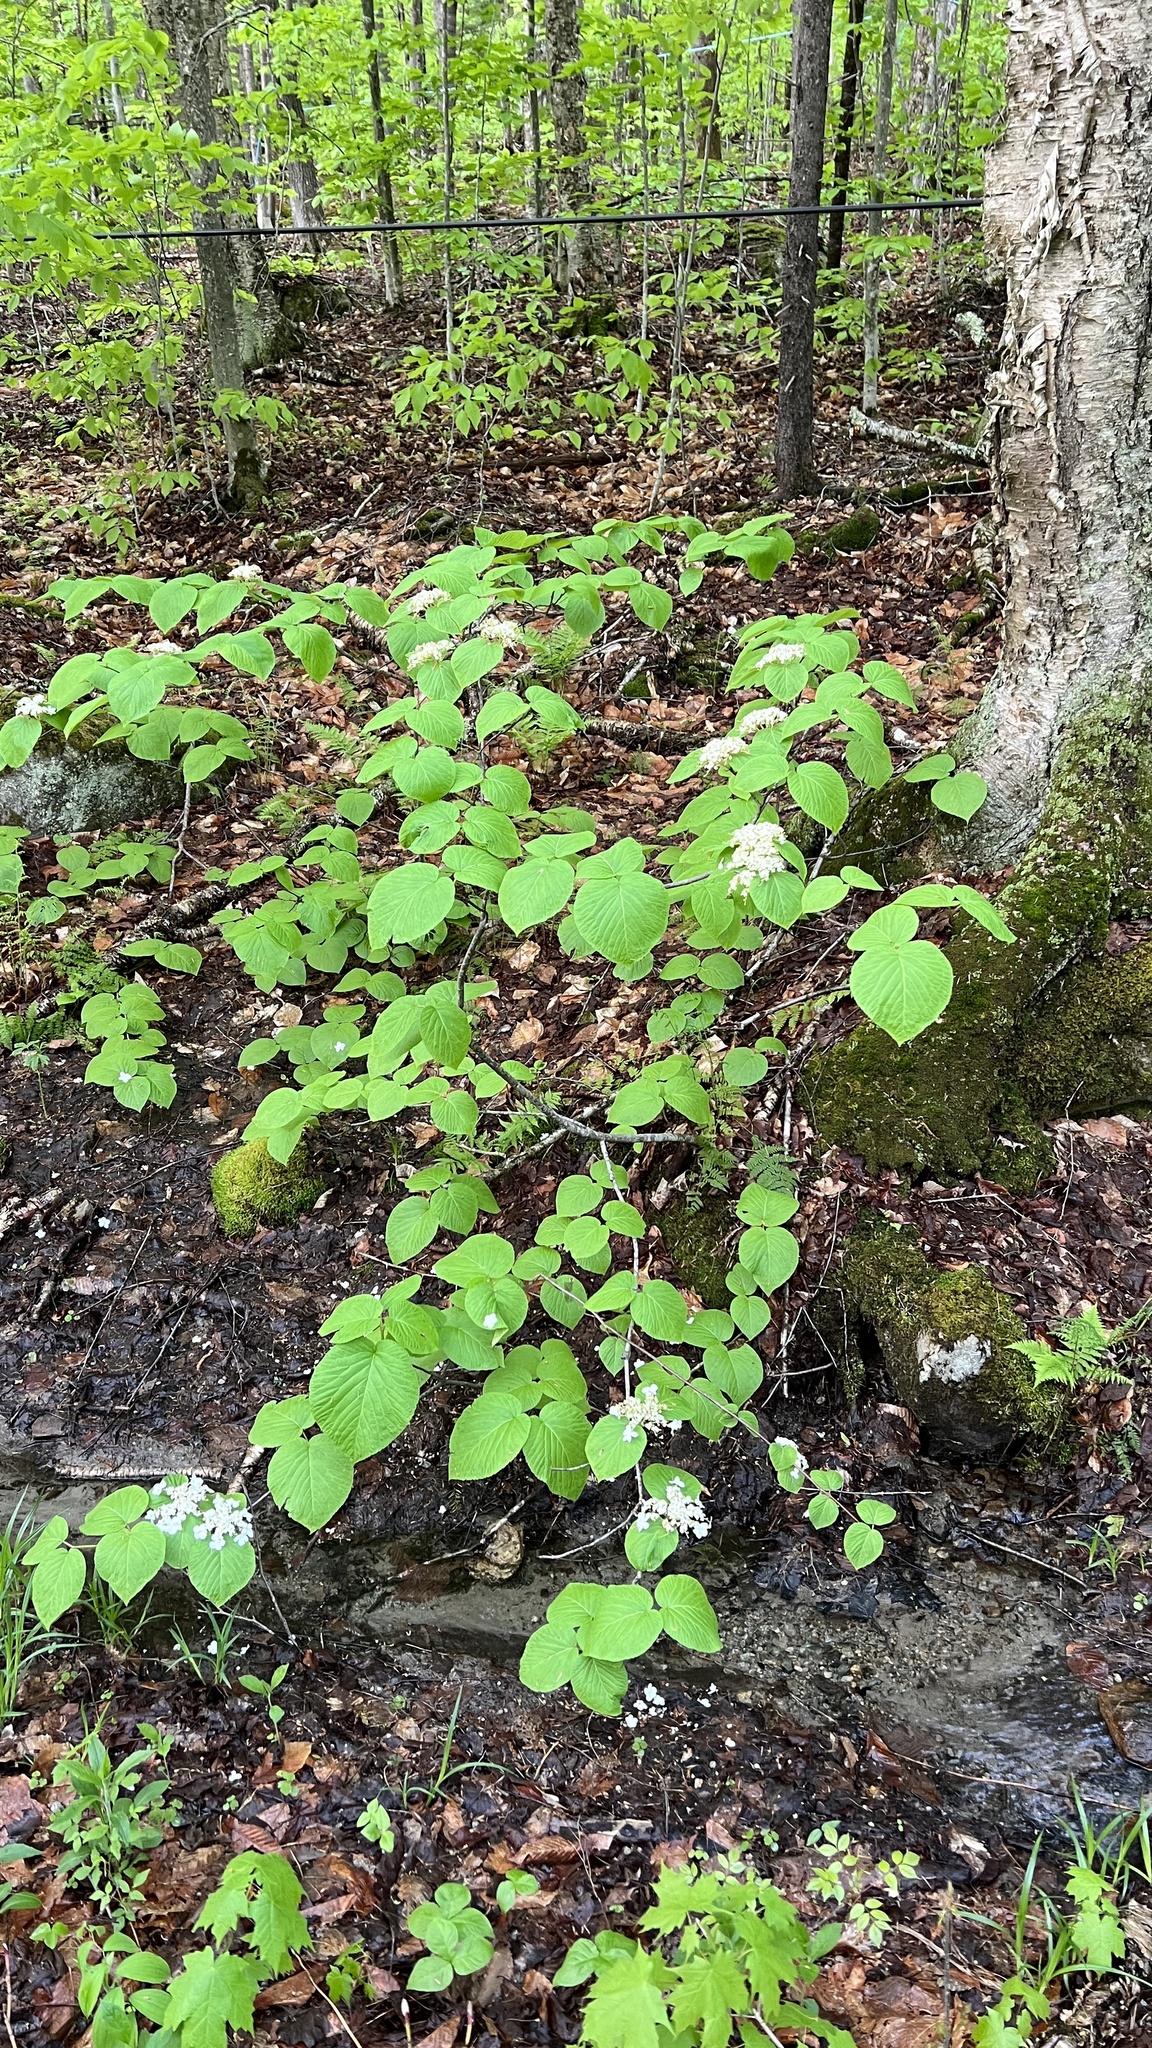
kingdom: Plantae
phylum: Tracheophyta
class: Magnoliopsida
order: Dipsacales
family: Viburnaceae
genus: Viburnum
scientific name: Viburnum lantanoides
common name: Hobblebush
